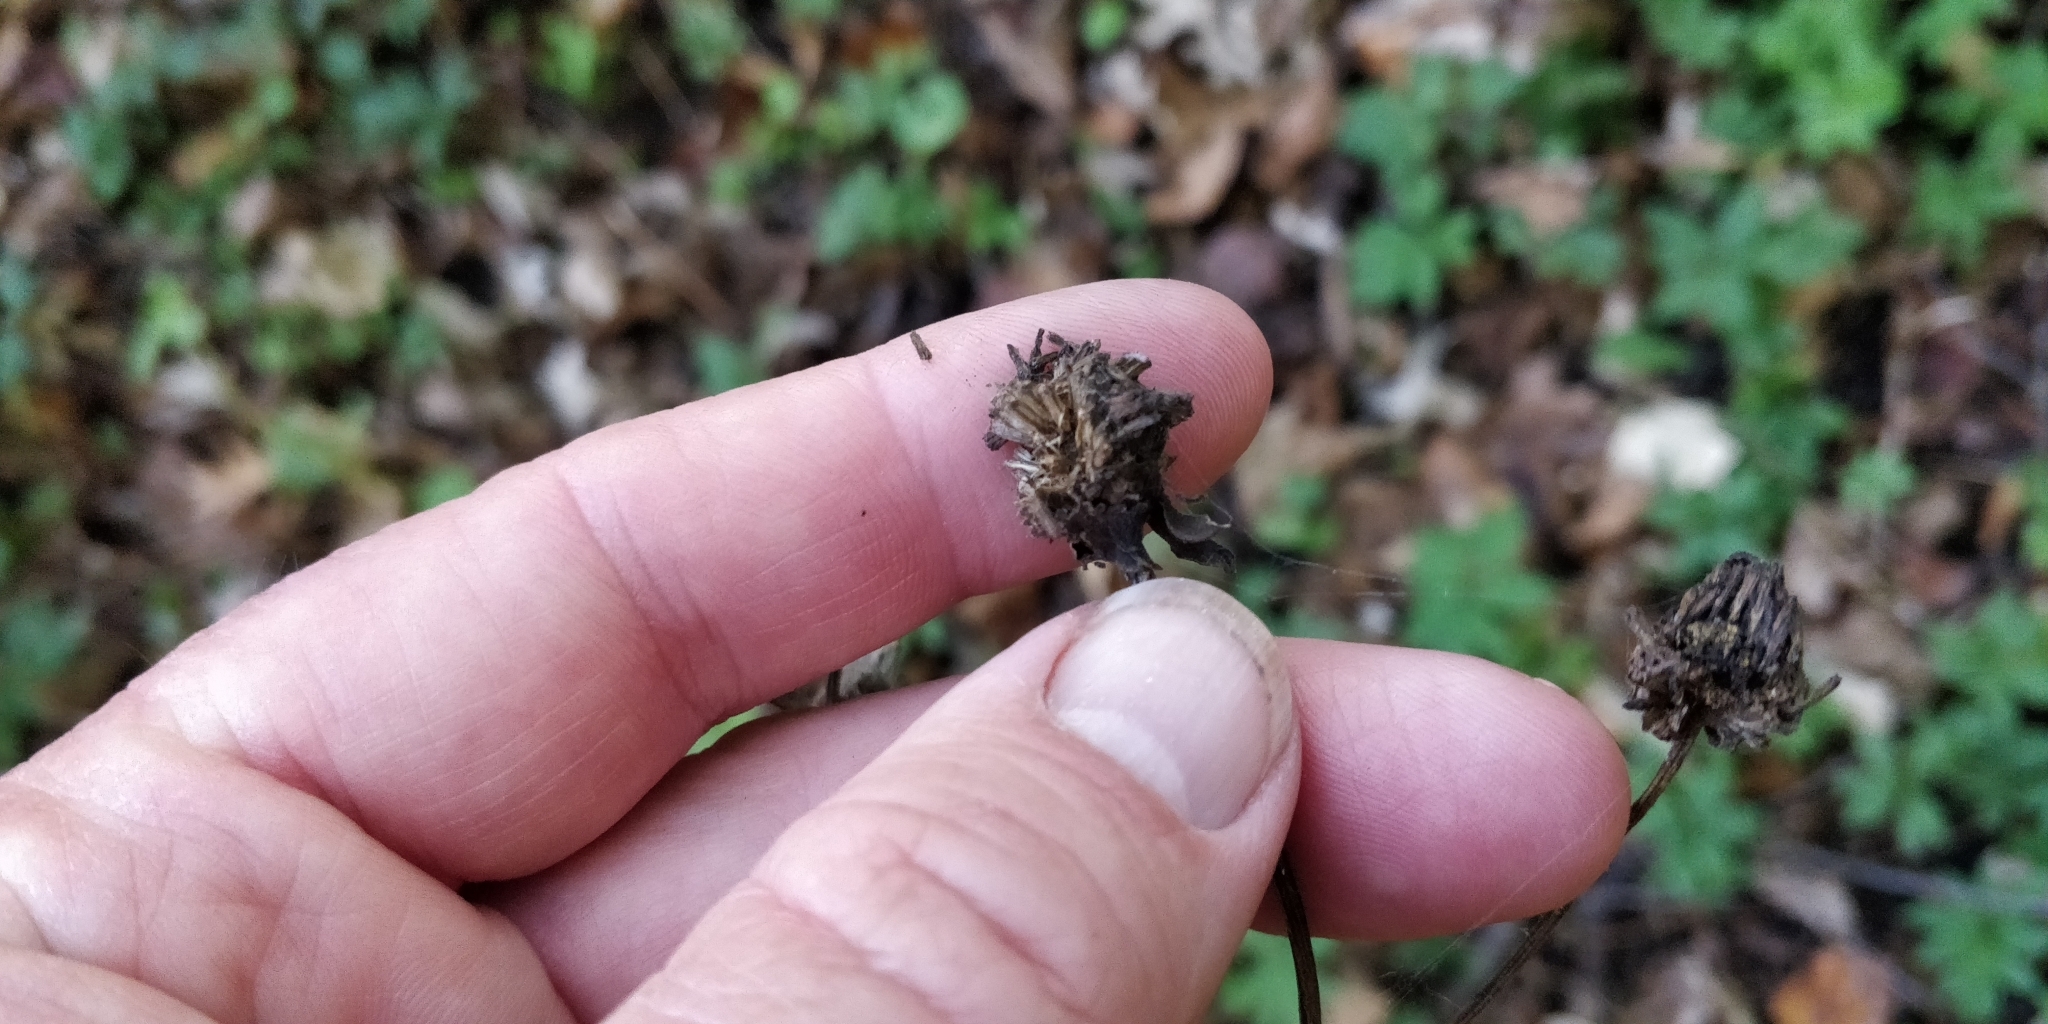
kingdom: Plantae
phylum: Tracheophyta
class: Magnoliopsida
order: Asterales
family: Asteraceae
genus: Rudbeckia
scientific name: Rudbeckia laciniata
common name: Coneflower
